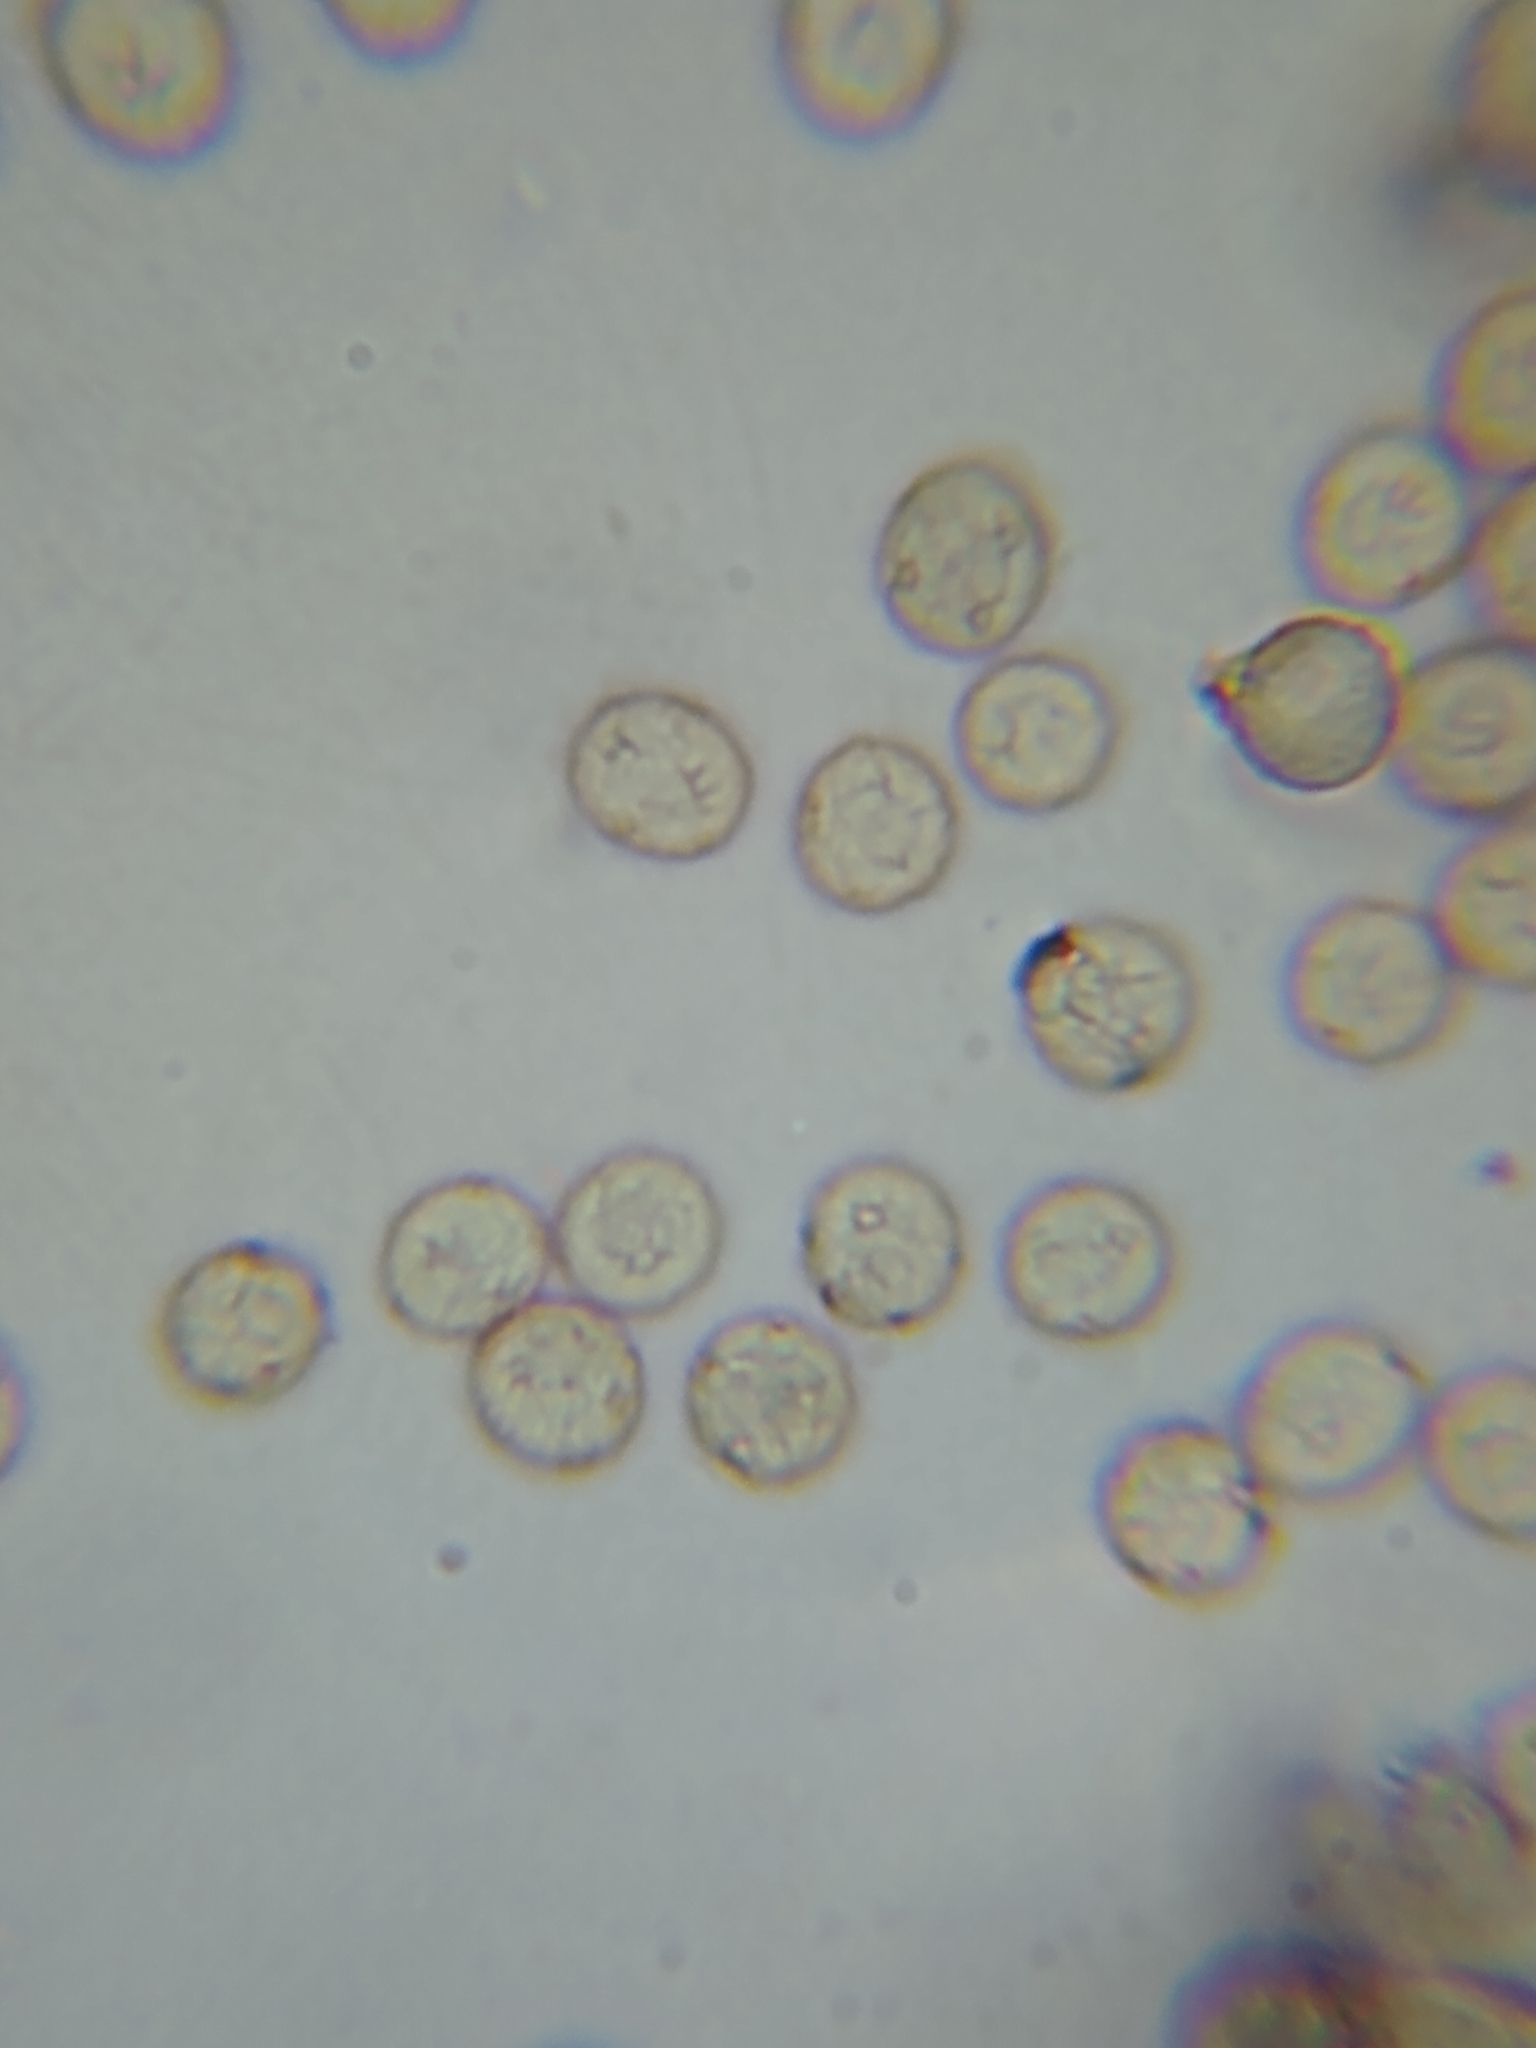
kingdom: Protozoa
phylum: Mycetozoa
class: Myxomycetes
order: Stemonitidales
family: Stemonitidaceae
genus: Comatricha
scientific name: Comatricha meandrispora
